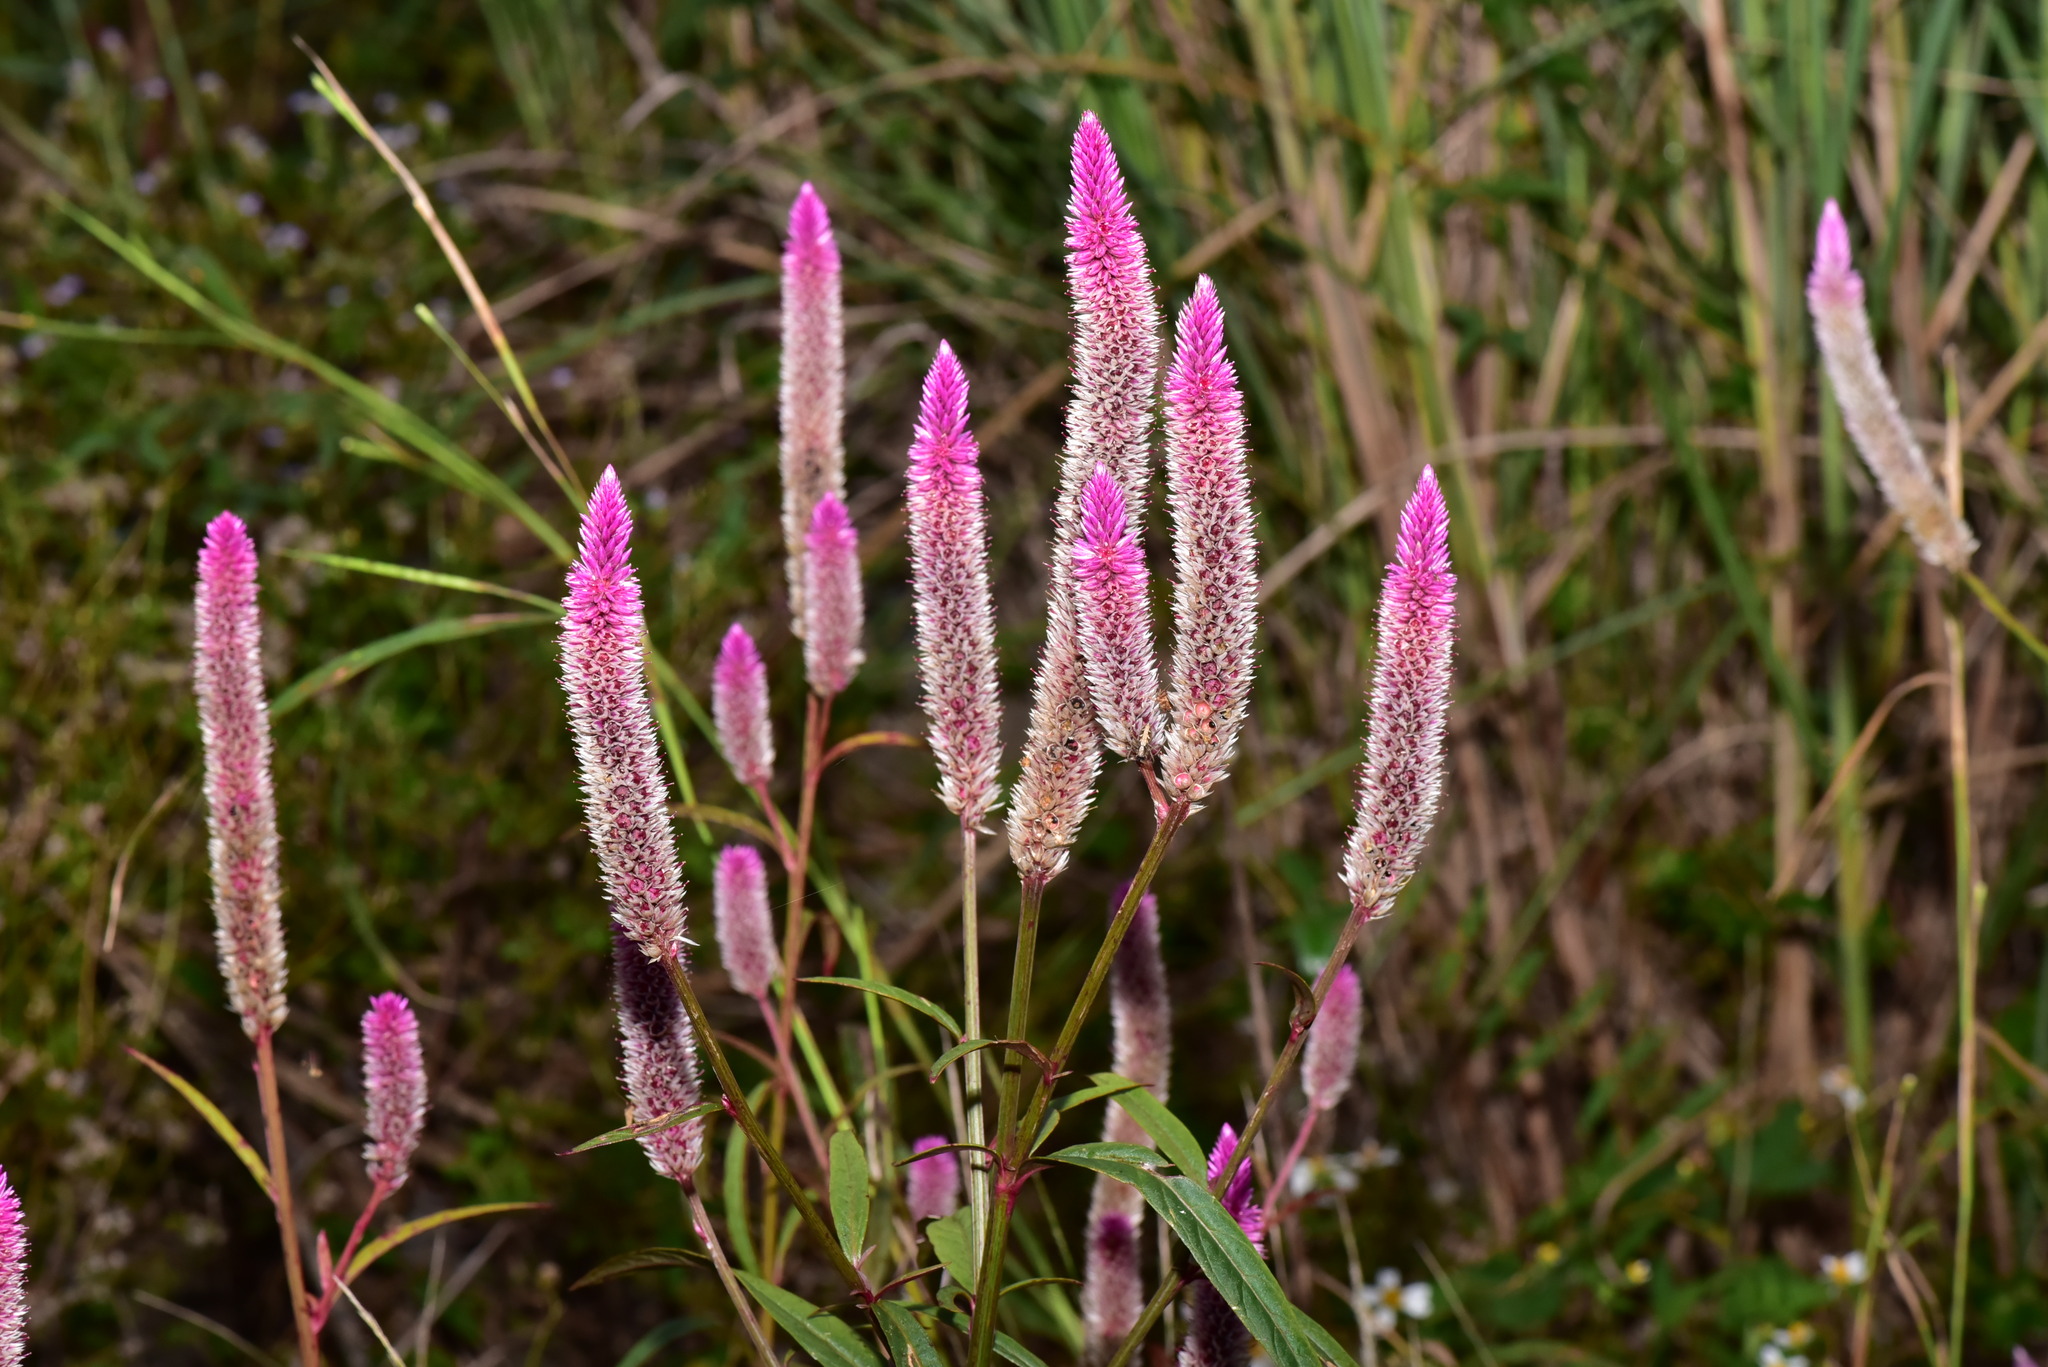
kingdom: Plantae
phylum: Tracheophyta
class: Magnoliopsida
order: Caryophyllales
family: Amaranthaceae
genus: Celosia
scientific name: Celosia argentea
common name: Feather cockscomb
